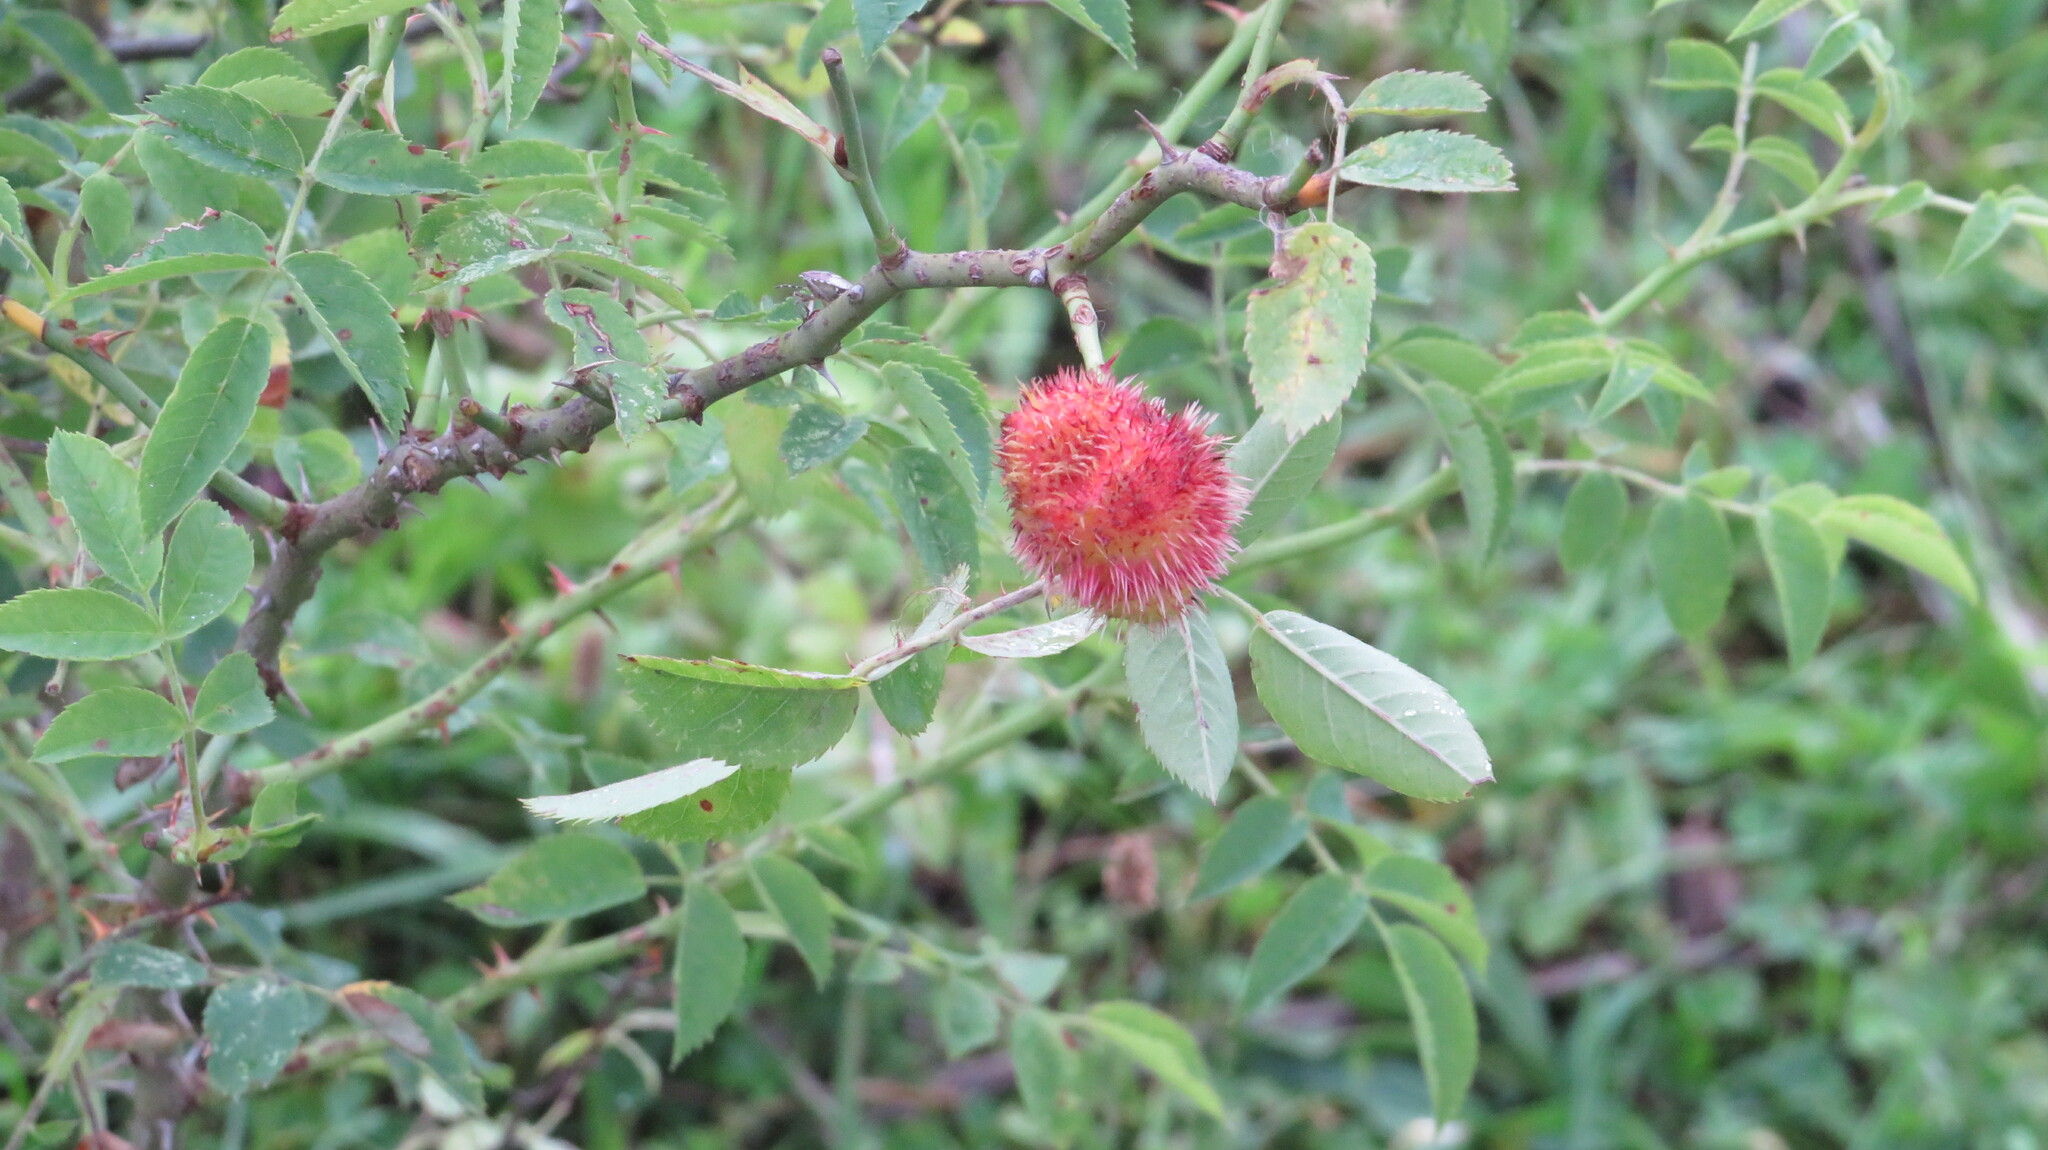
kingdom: Animalia
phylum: Arthropoda
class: Insecta
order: Hymenoptera
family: Cynipidae
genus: Diplolepis
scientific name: Diplolepis rosae
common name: Bedeguar gall
